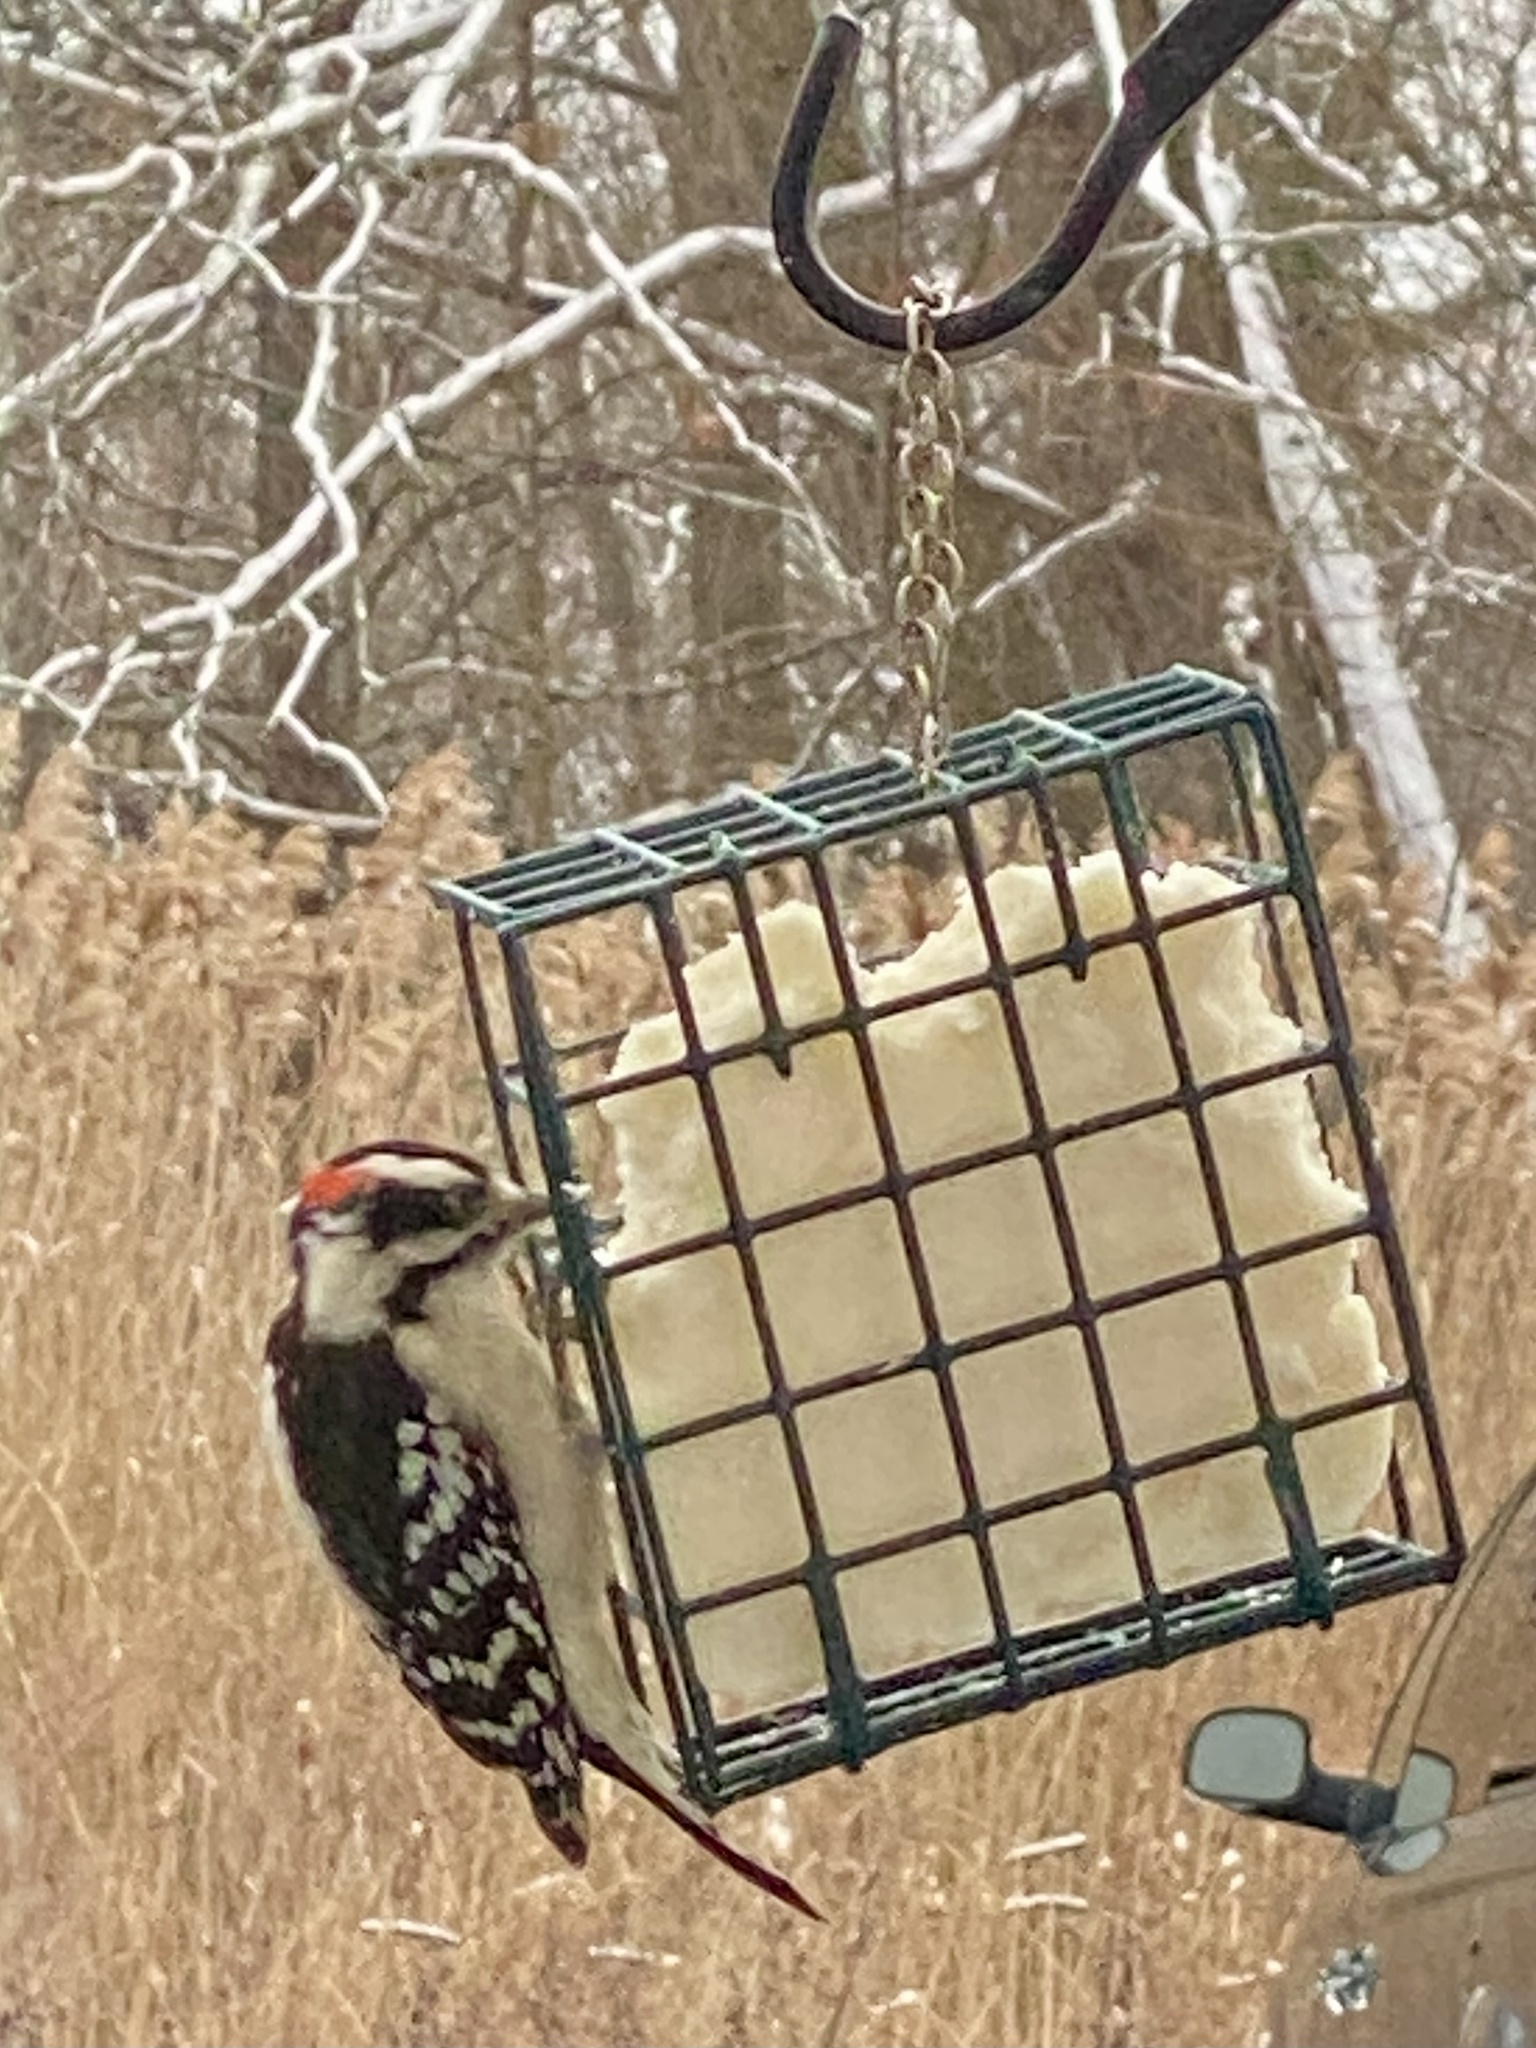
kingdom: Animalia
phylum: Chordata
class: Aves
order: Piciformes
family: Picidae
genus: Dryobates
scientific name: Dryobates pubescens
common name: Downy woodpecker
